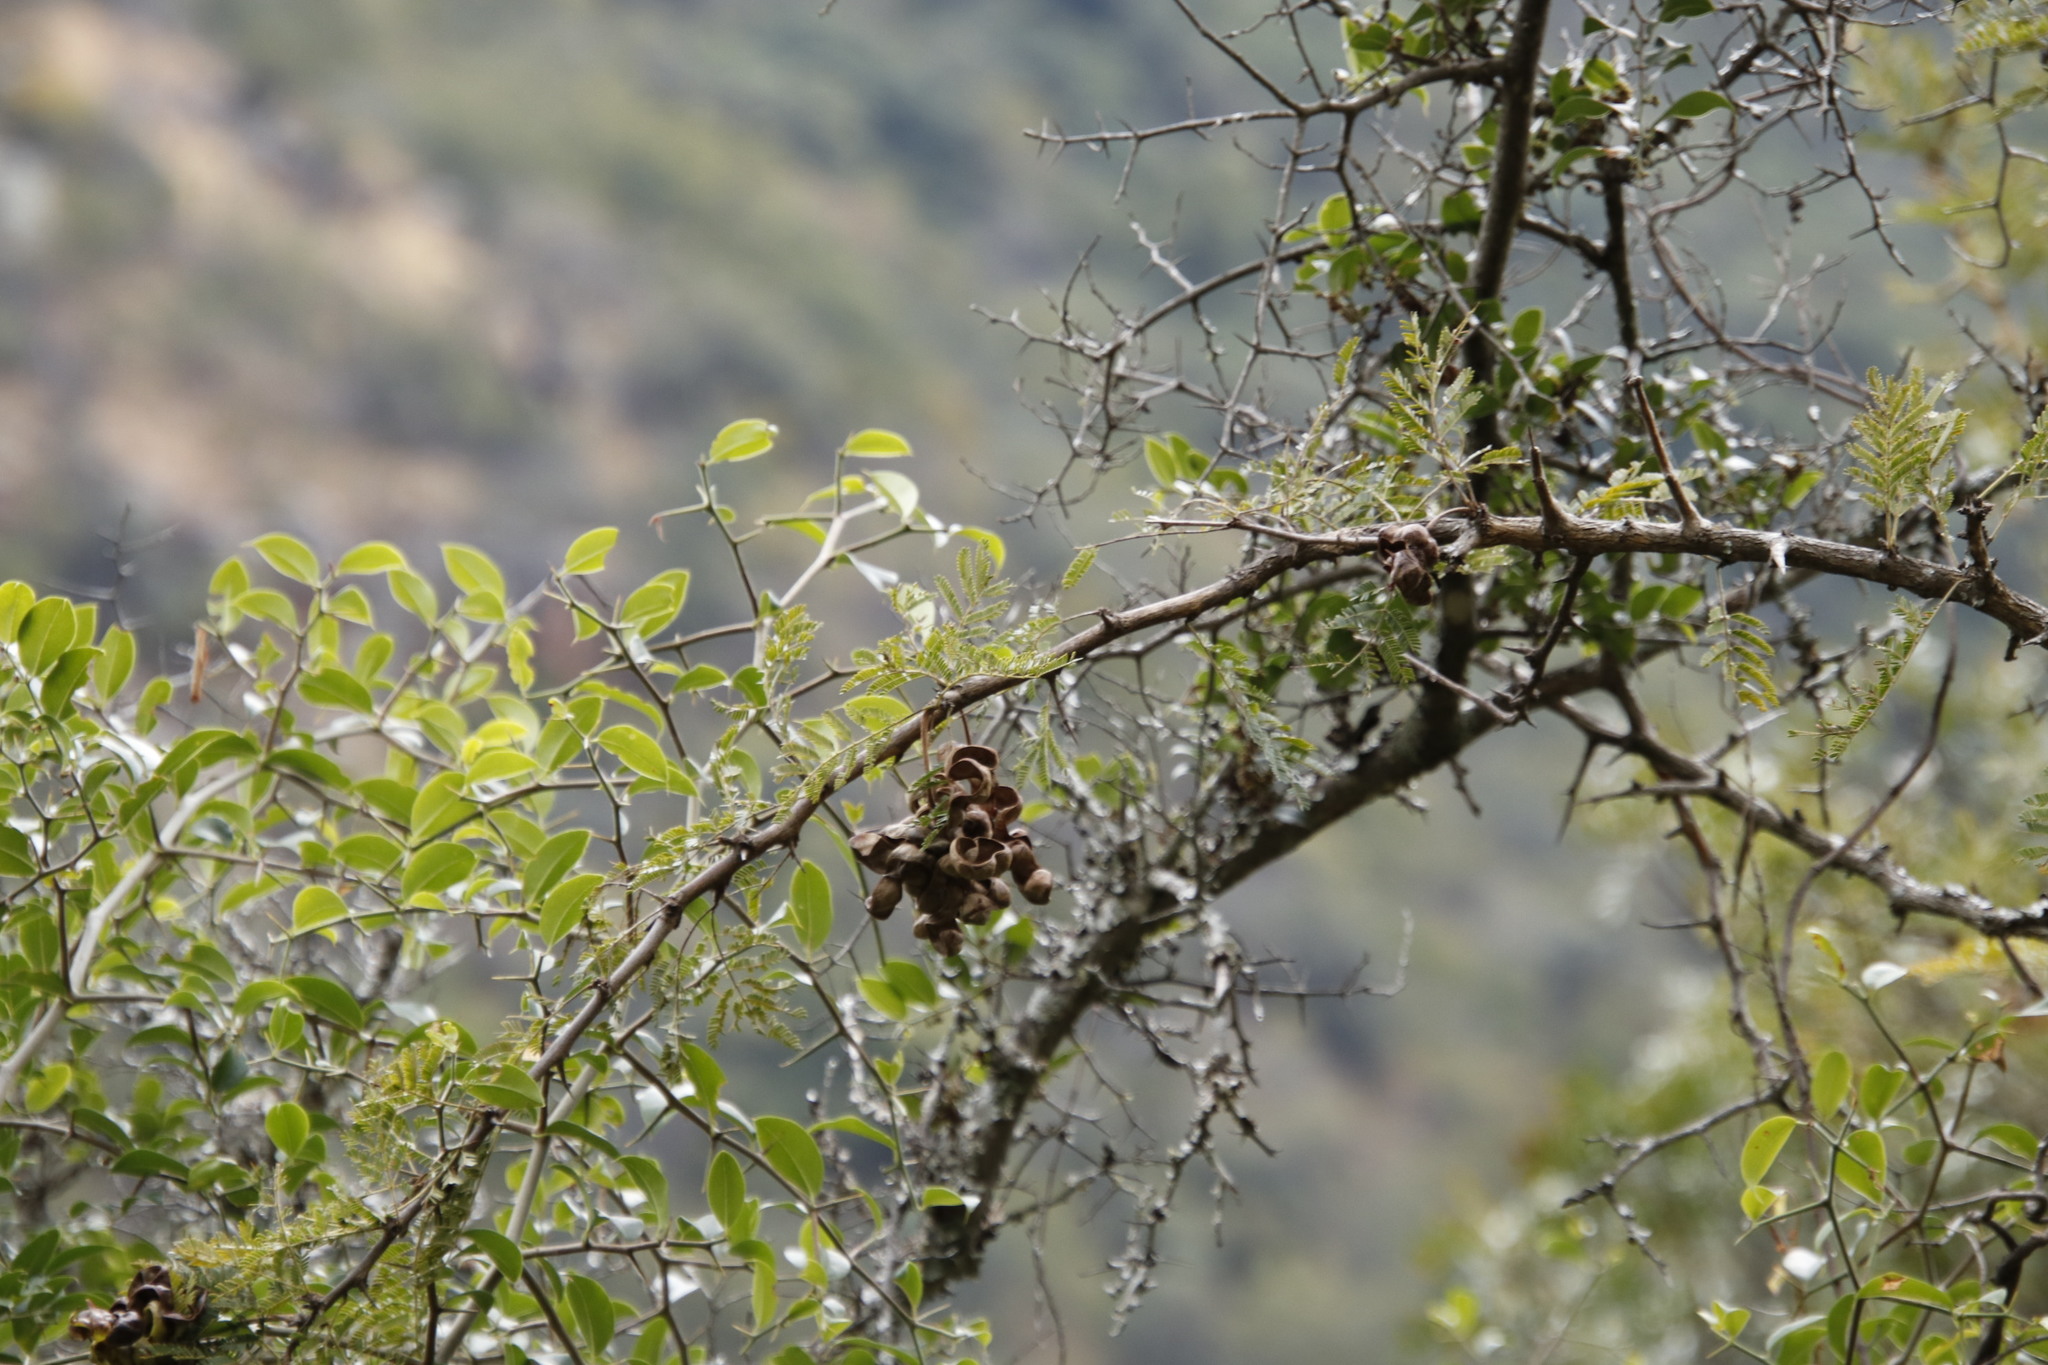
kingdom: Plantae
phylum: Tracheophyta
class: Magnoliopsida
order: Fabales
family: Fabaceae
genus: Dichrostachys
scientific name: Dichrostachys cinerea
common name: Sicklebush
